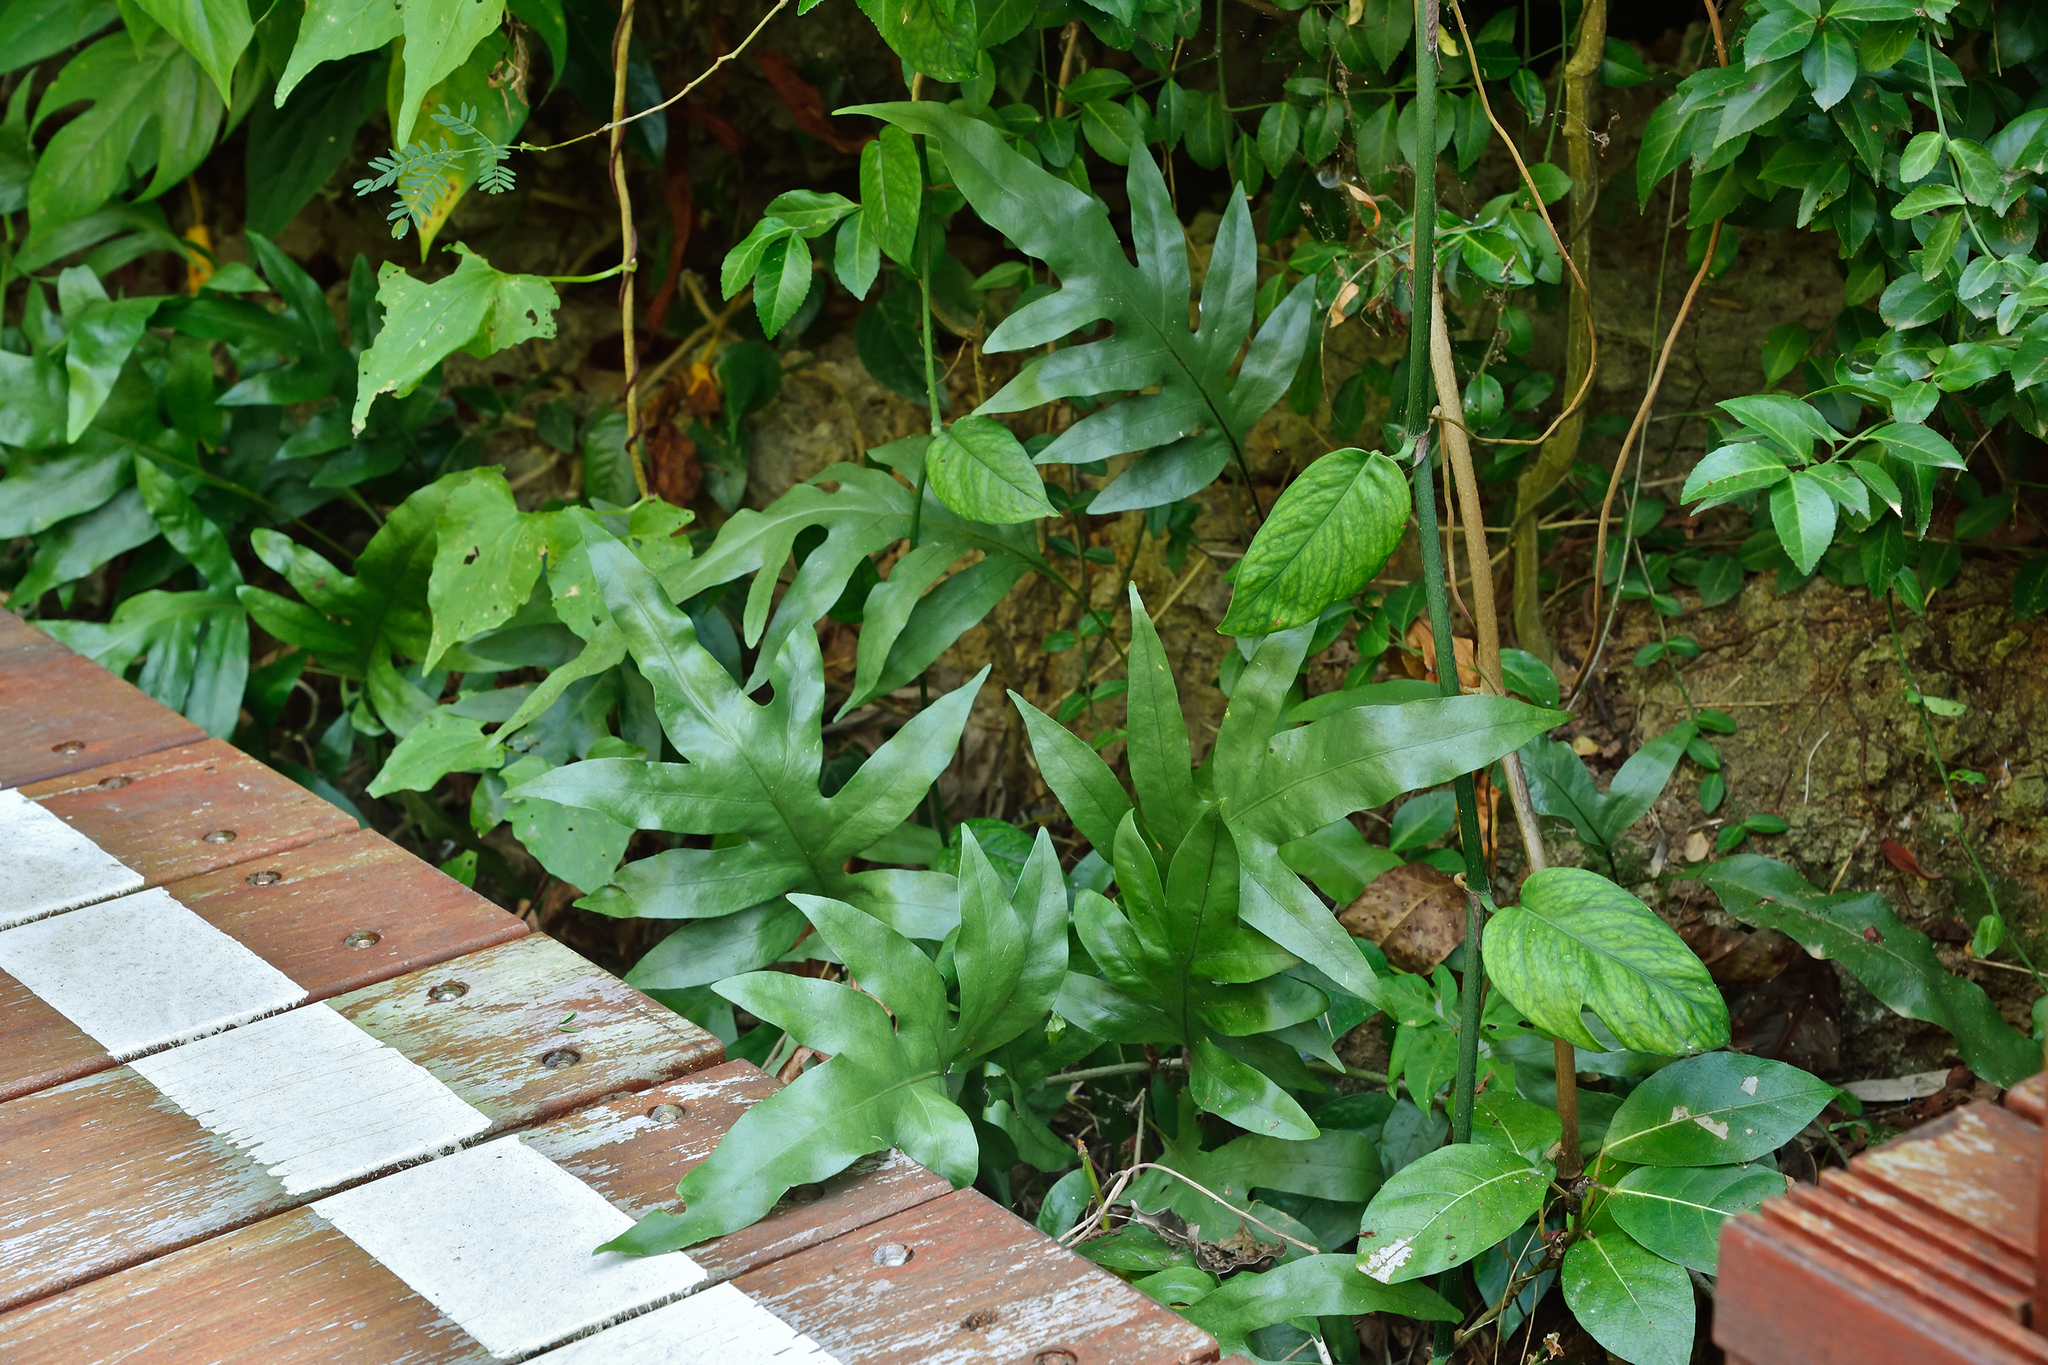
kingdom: Plantae
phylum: Tracheophyta
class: Polypodiopsida
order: Polypodiales
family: Polypodiaceae
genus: Microsorum
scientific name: Microsorum scolopendria
